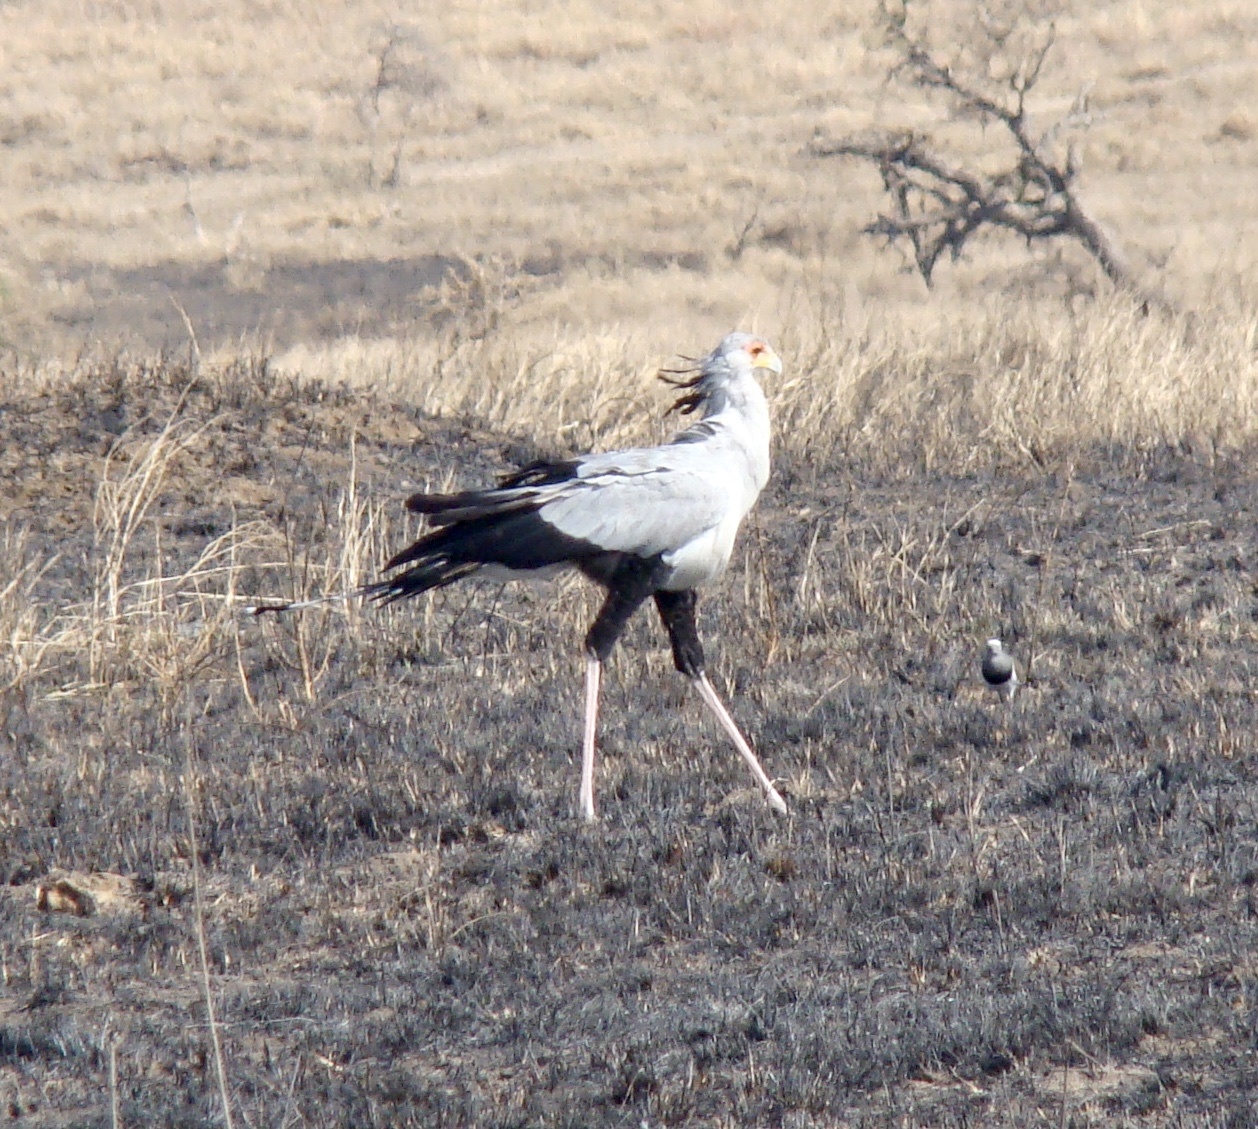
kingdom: Animalia
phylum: Chordata
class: Aves
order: Accipitriformes
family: Sagittariidae
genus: Sagittarius
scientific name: Sagittarius serpentarius
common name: Secretarybird
